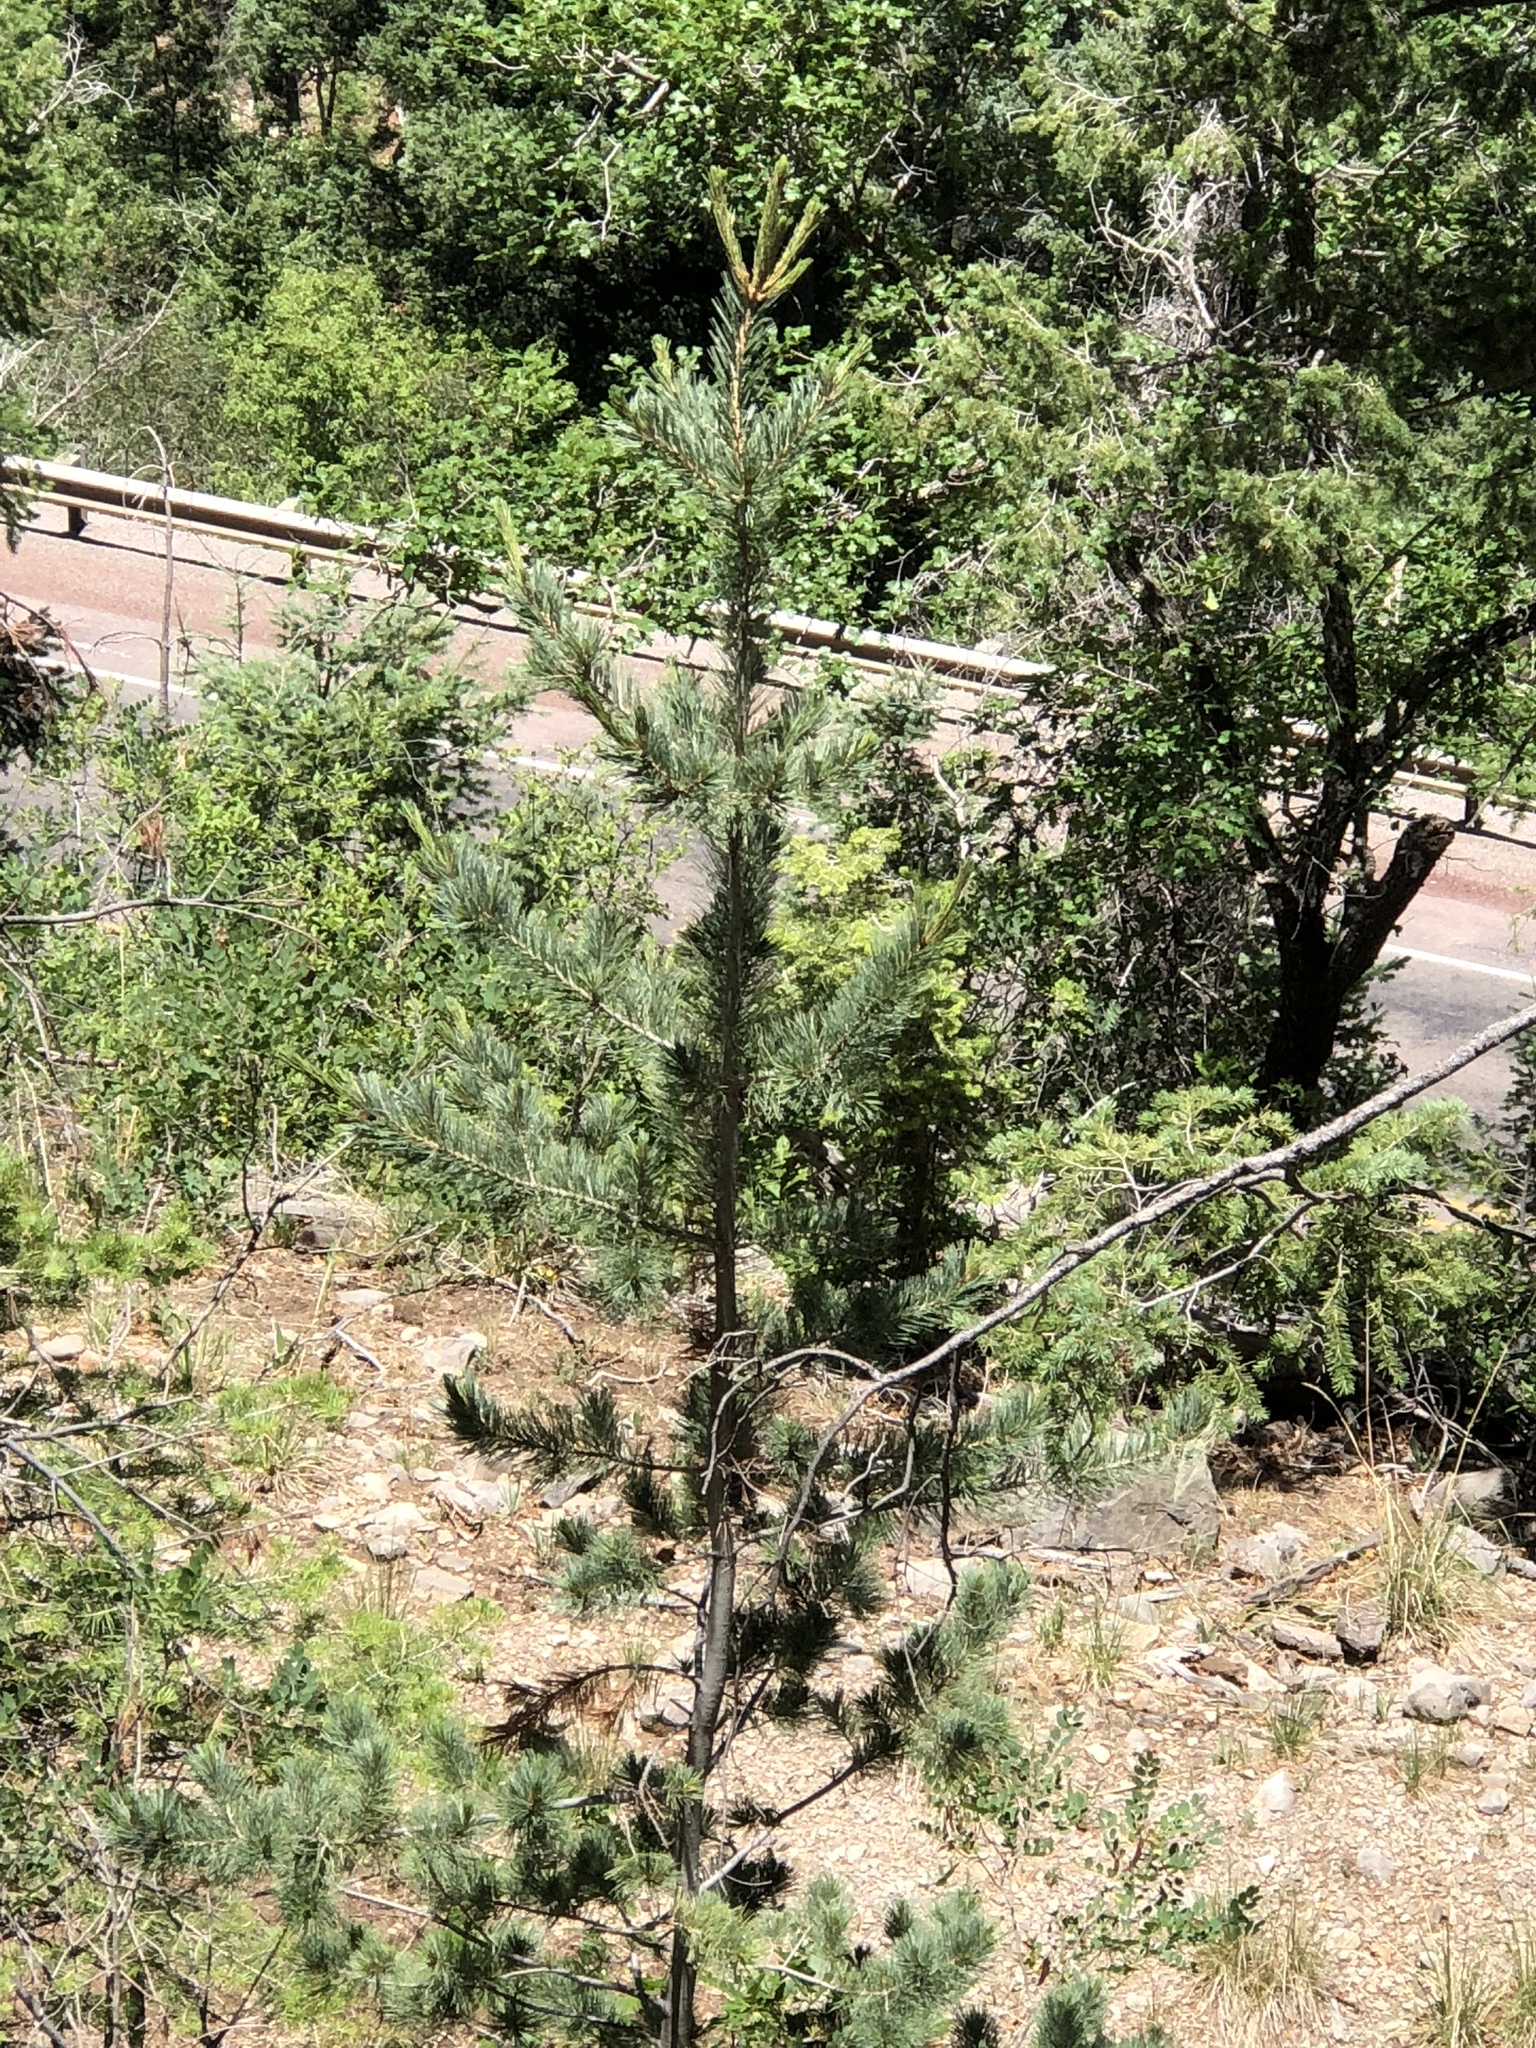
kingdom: Plantae
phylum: Tracheophyta
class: Pinopsida
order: Pinales
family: Pinaceae
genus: Pinus
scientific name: Pinus strobiformis
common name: Southwestern white pine
